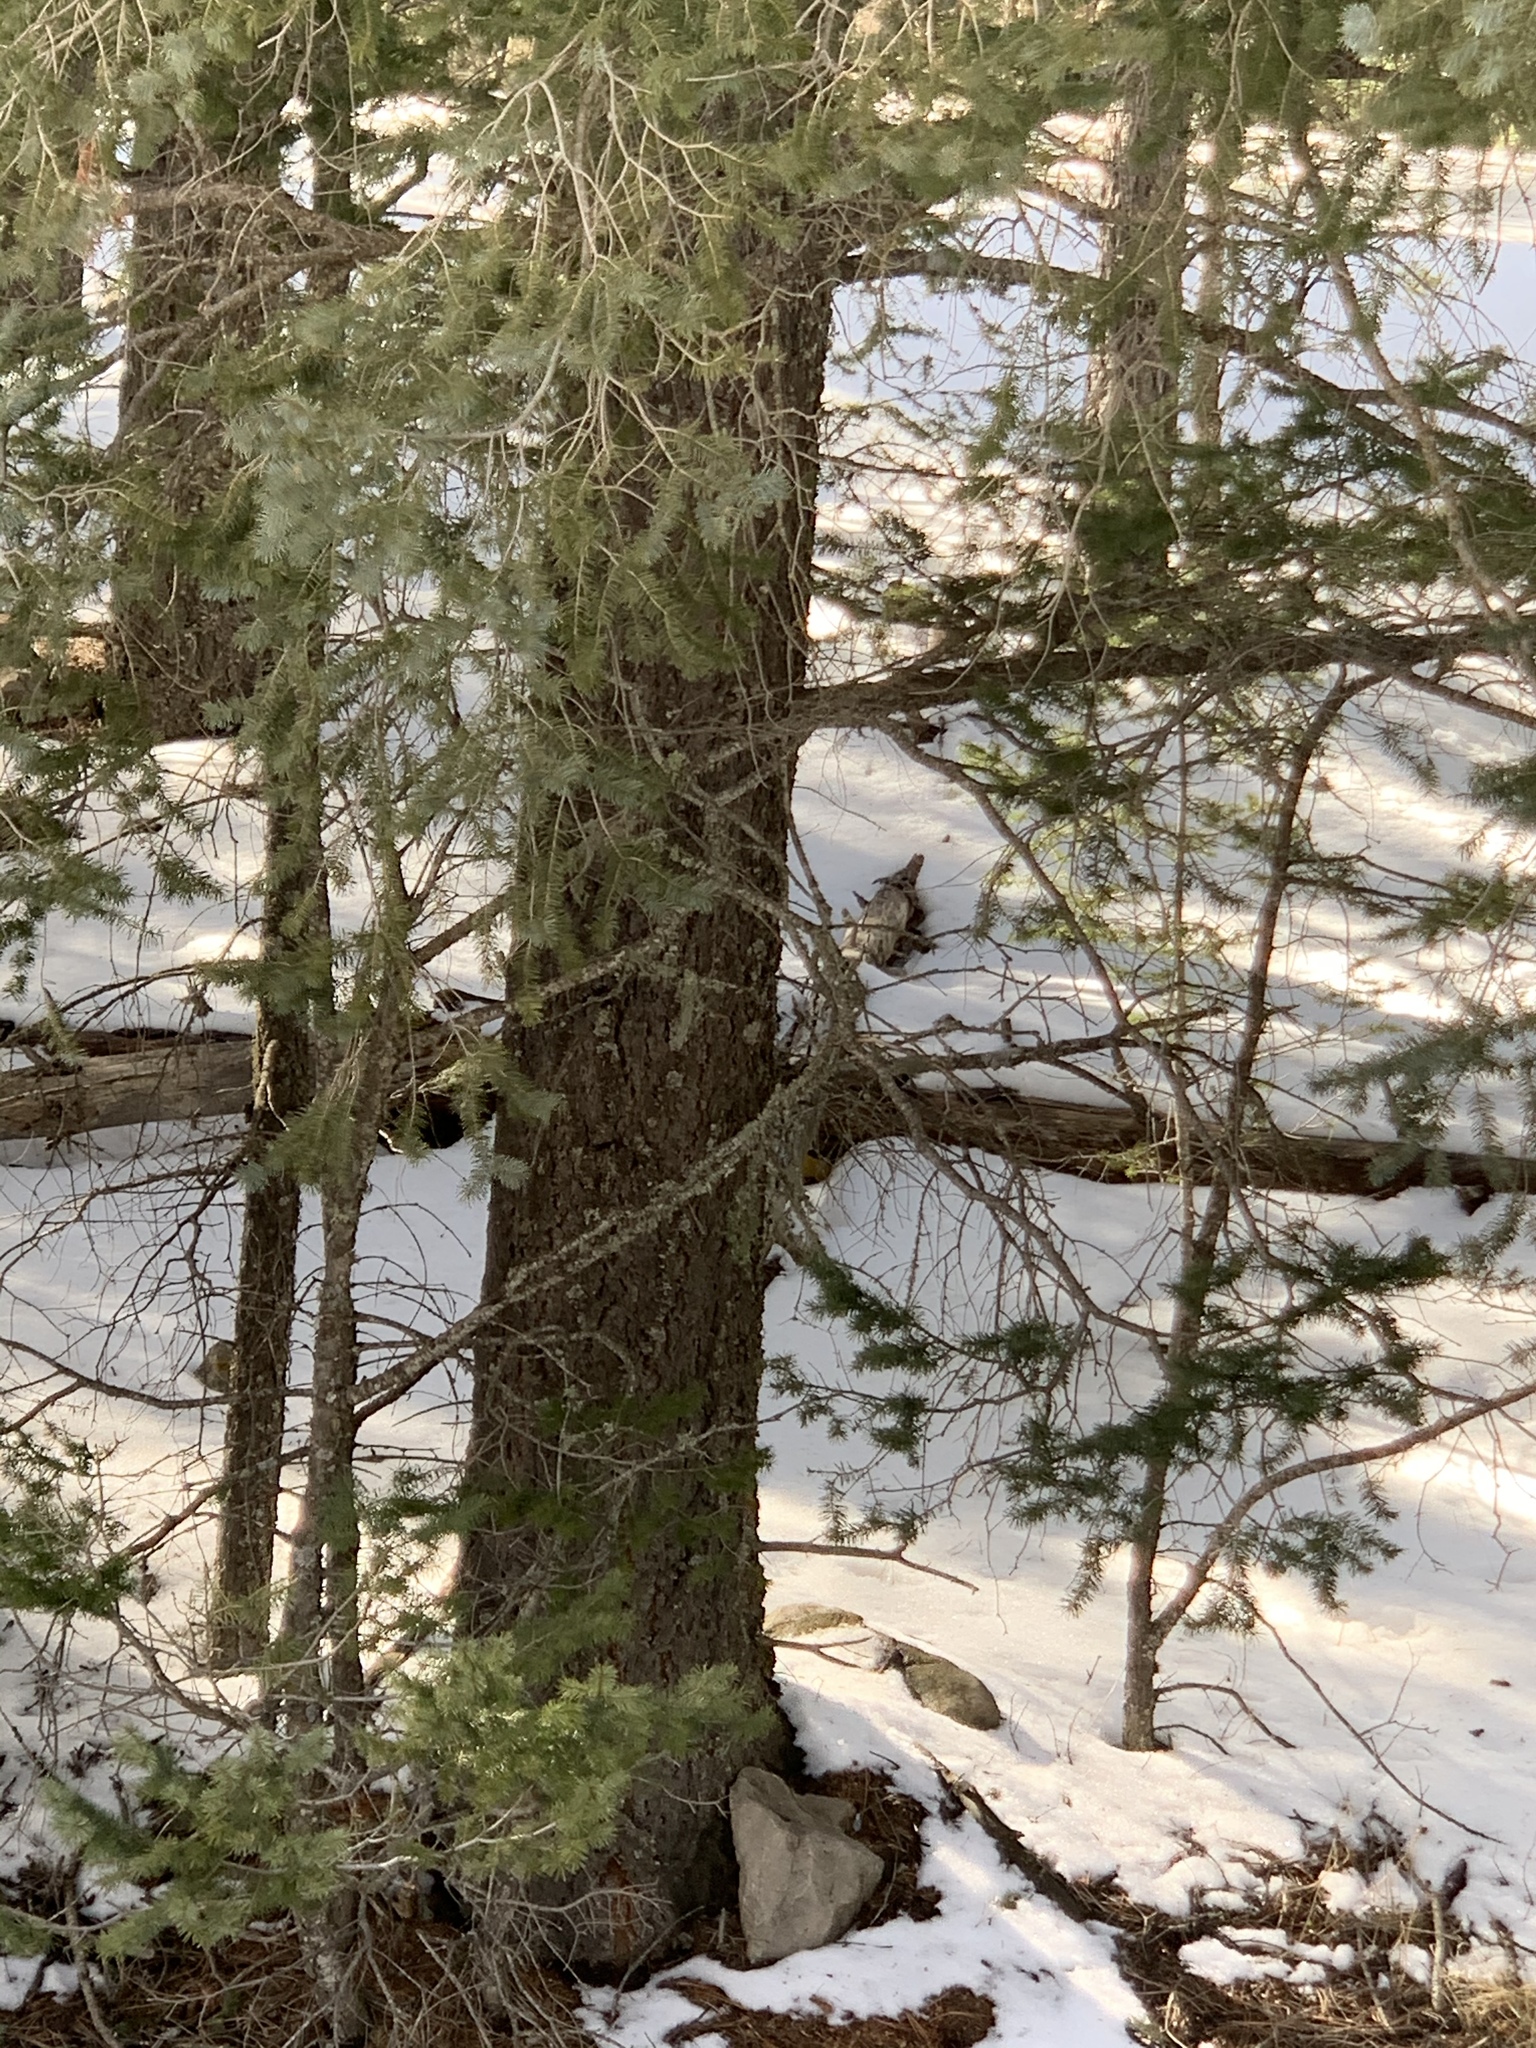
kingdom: Plantae
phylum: Tracheophyta
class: Pinopsida
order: Pinales
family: Pinaceae
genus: Pseudotsuga
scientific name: Pseudotsuga menziesii
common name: Douglas fir
